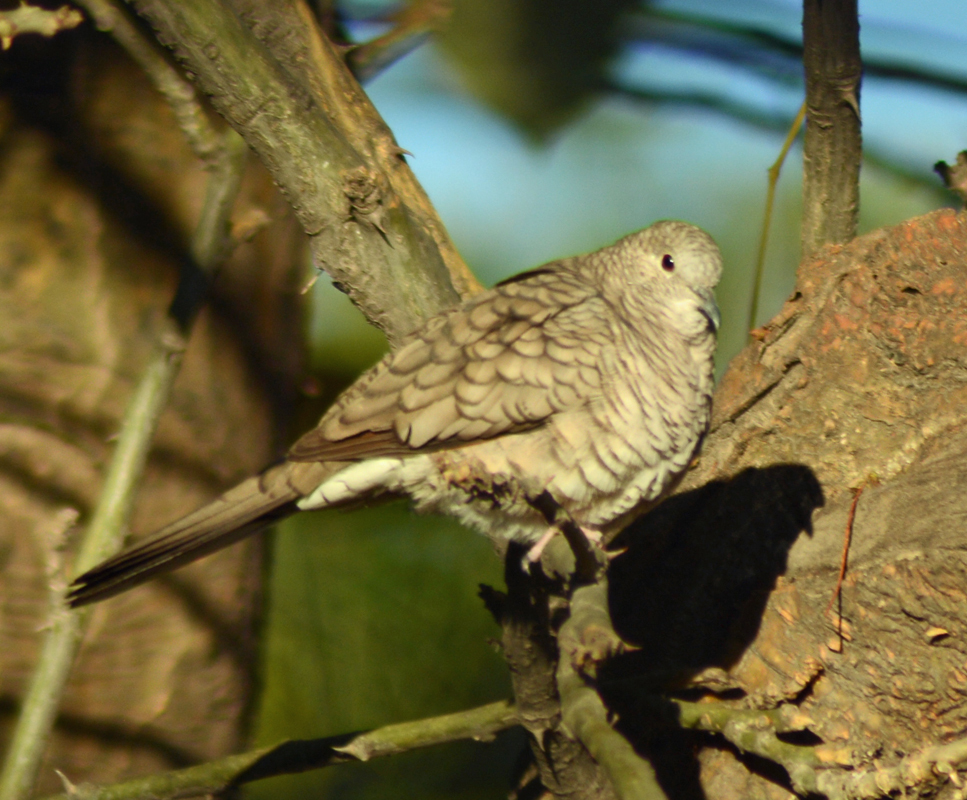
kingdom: Animalia
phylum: Chordata
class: Aves
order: Columbiformes
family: Columbidae
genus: Columbina
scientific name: Columbina inca
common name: Inca dove
